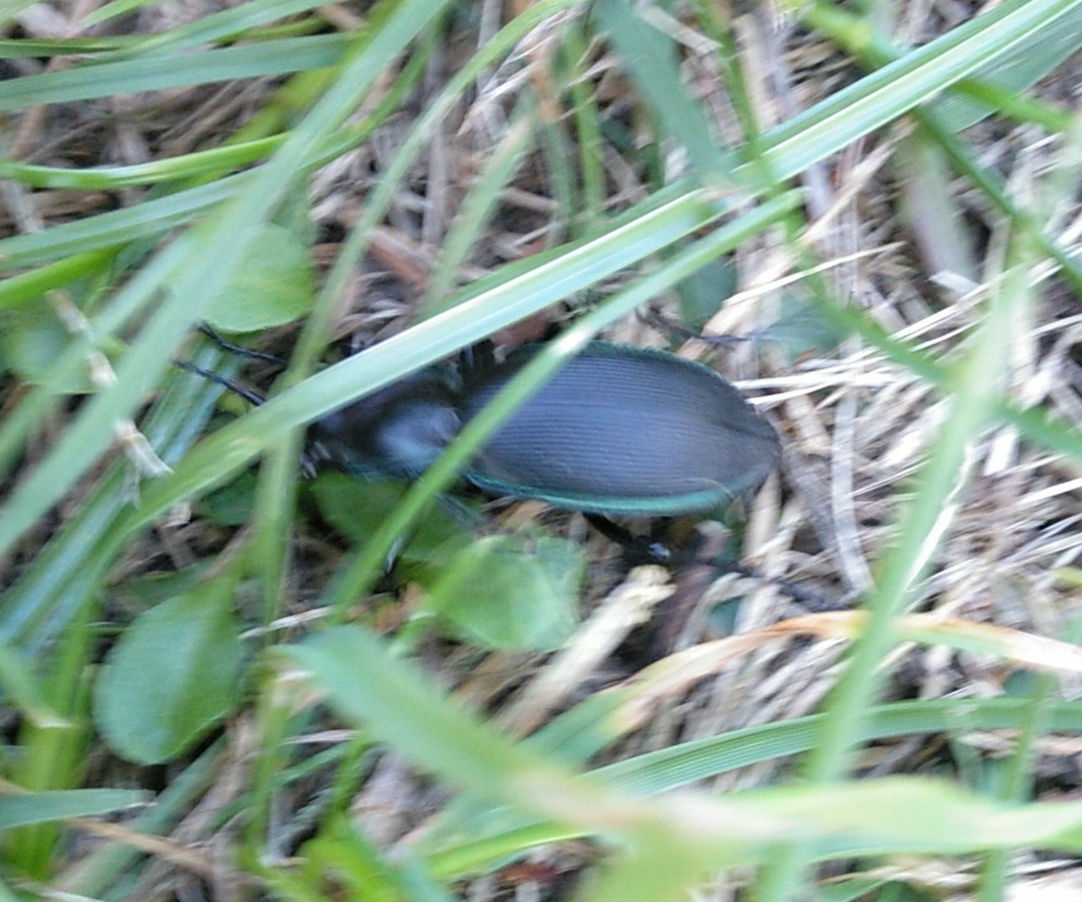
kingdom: Animalia
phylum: Arthropoda
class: Insecta
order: Coleoptera
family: Carabidae
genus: Carabus
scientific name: Carabus purpurascens
